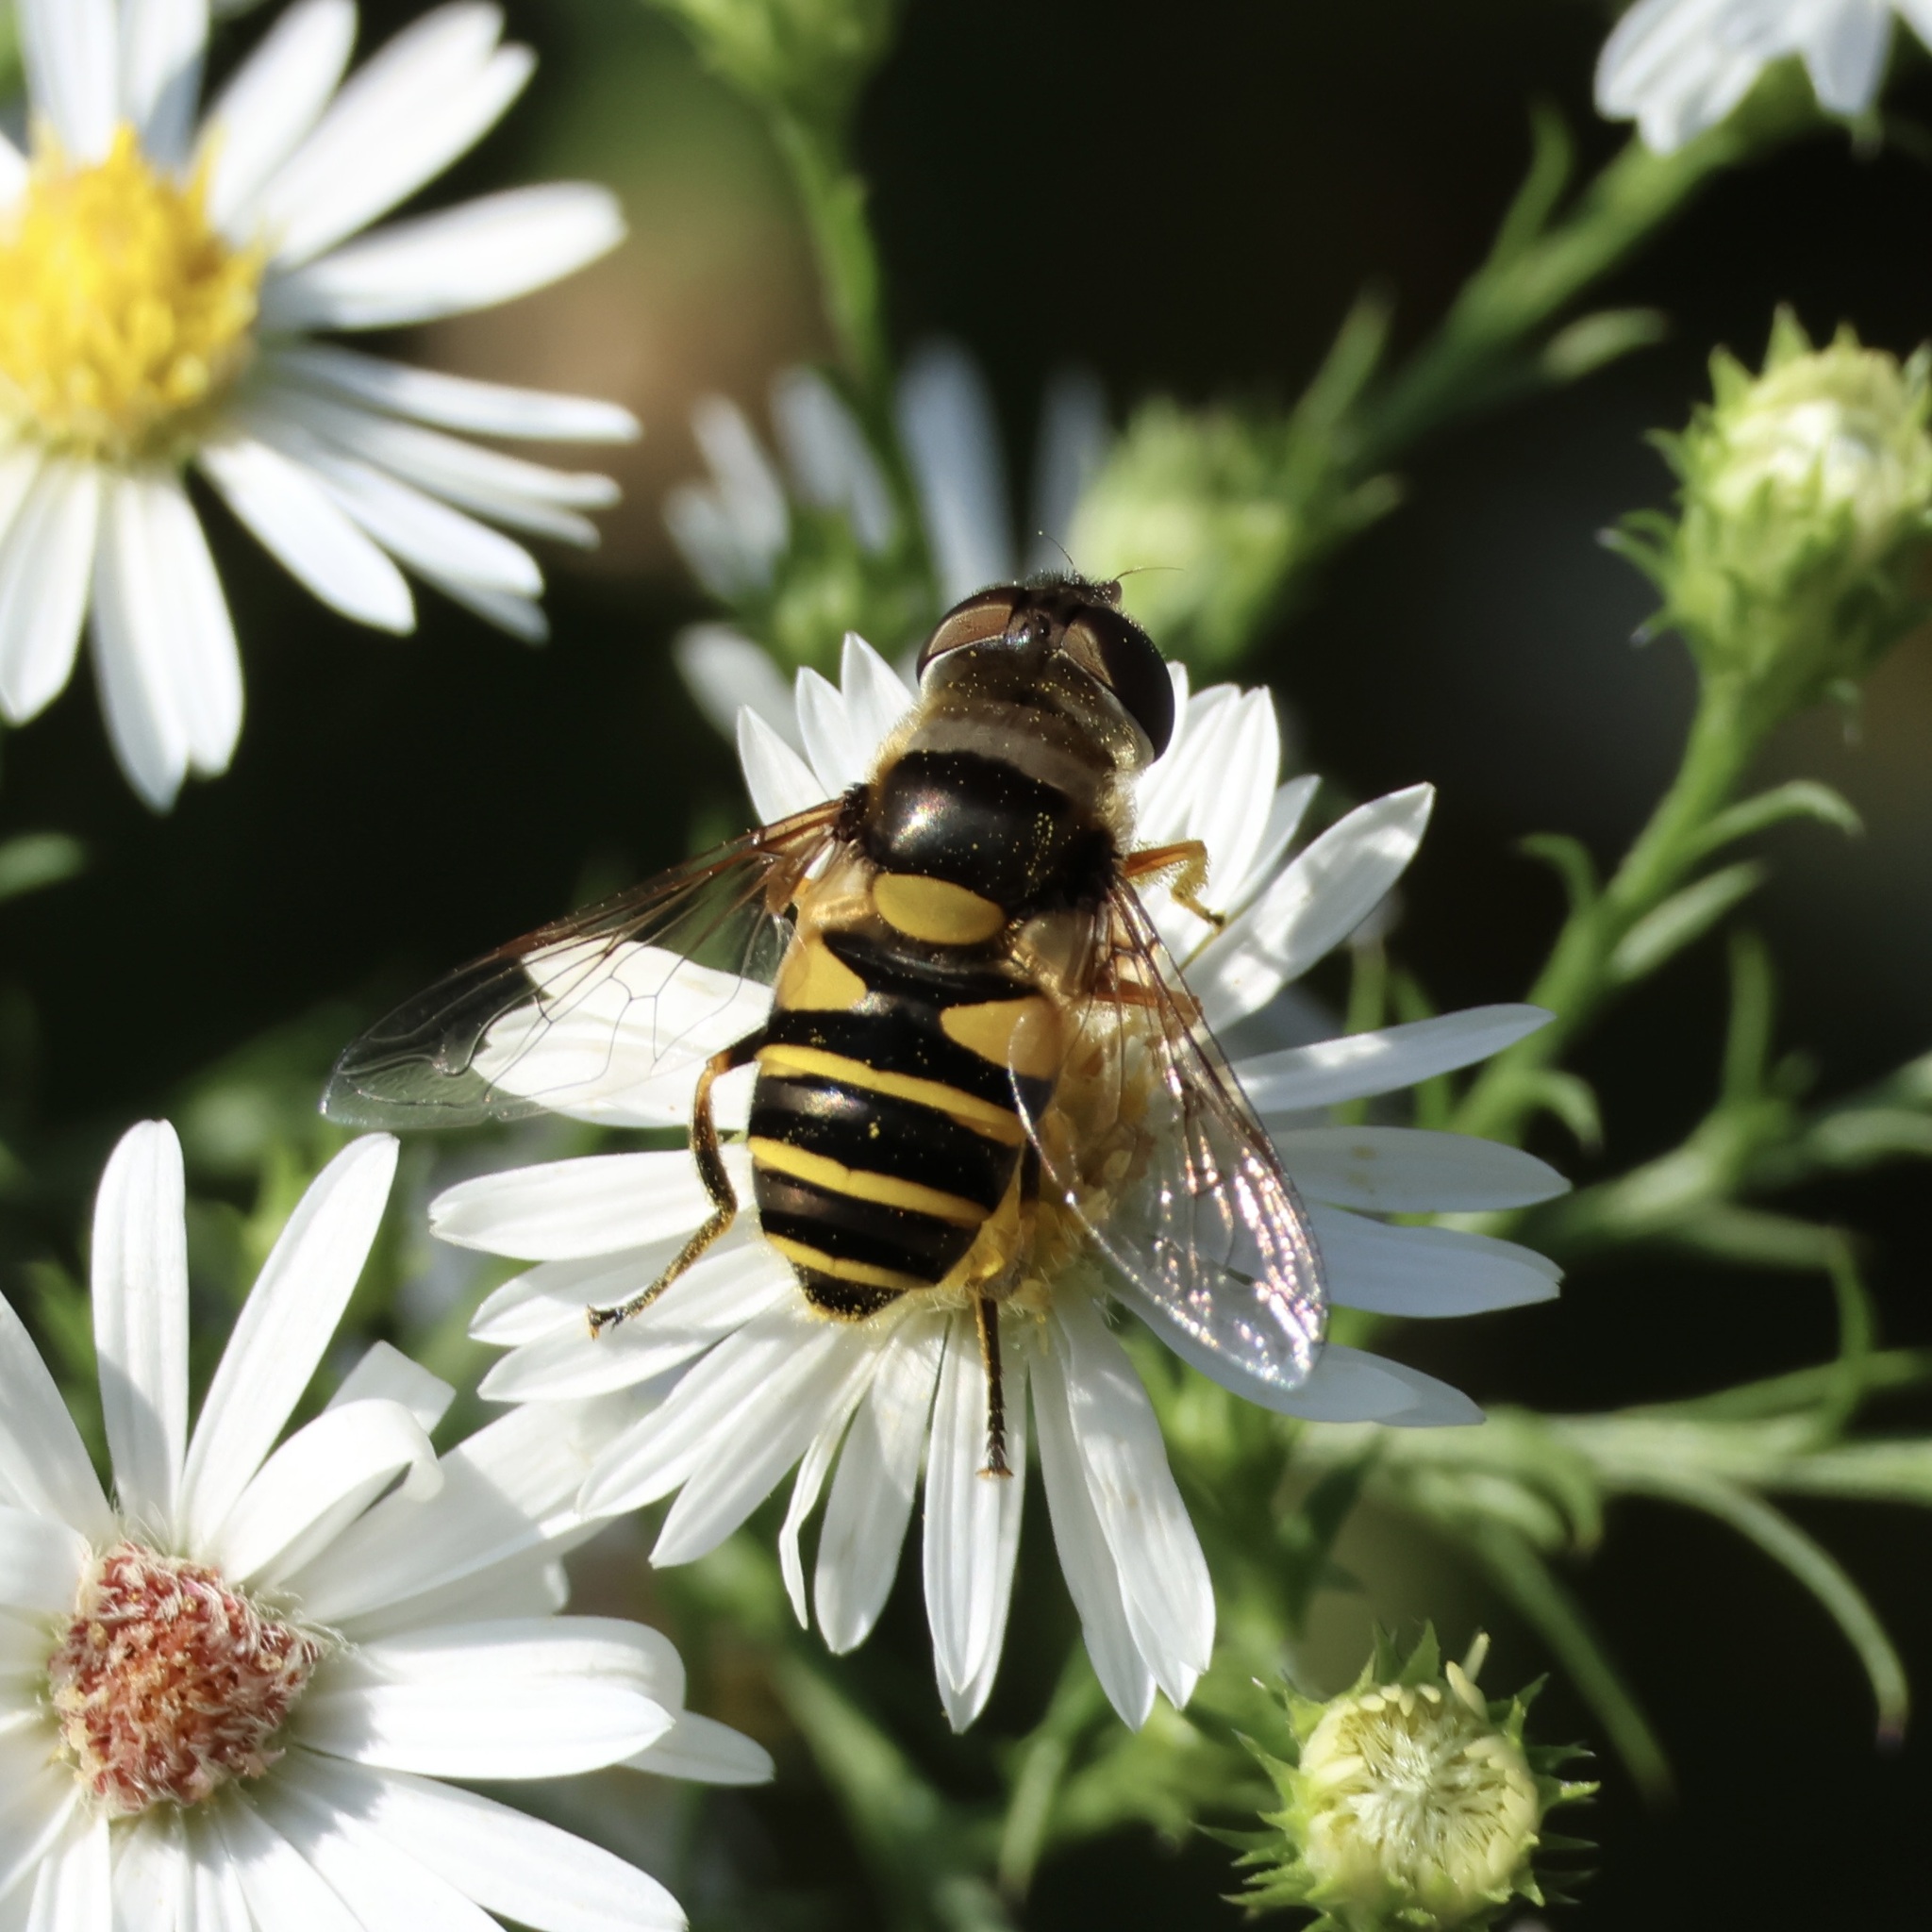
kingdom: Animalia
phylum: Arthropoda
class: Insecta
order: Diptera
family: Syrphidae
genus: Eristalis
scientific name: Eristalis transversa
